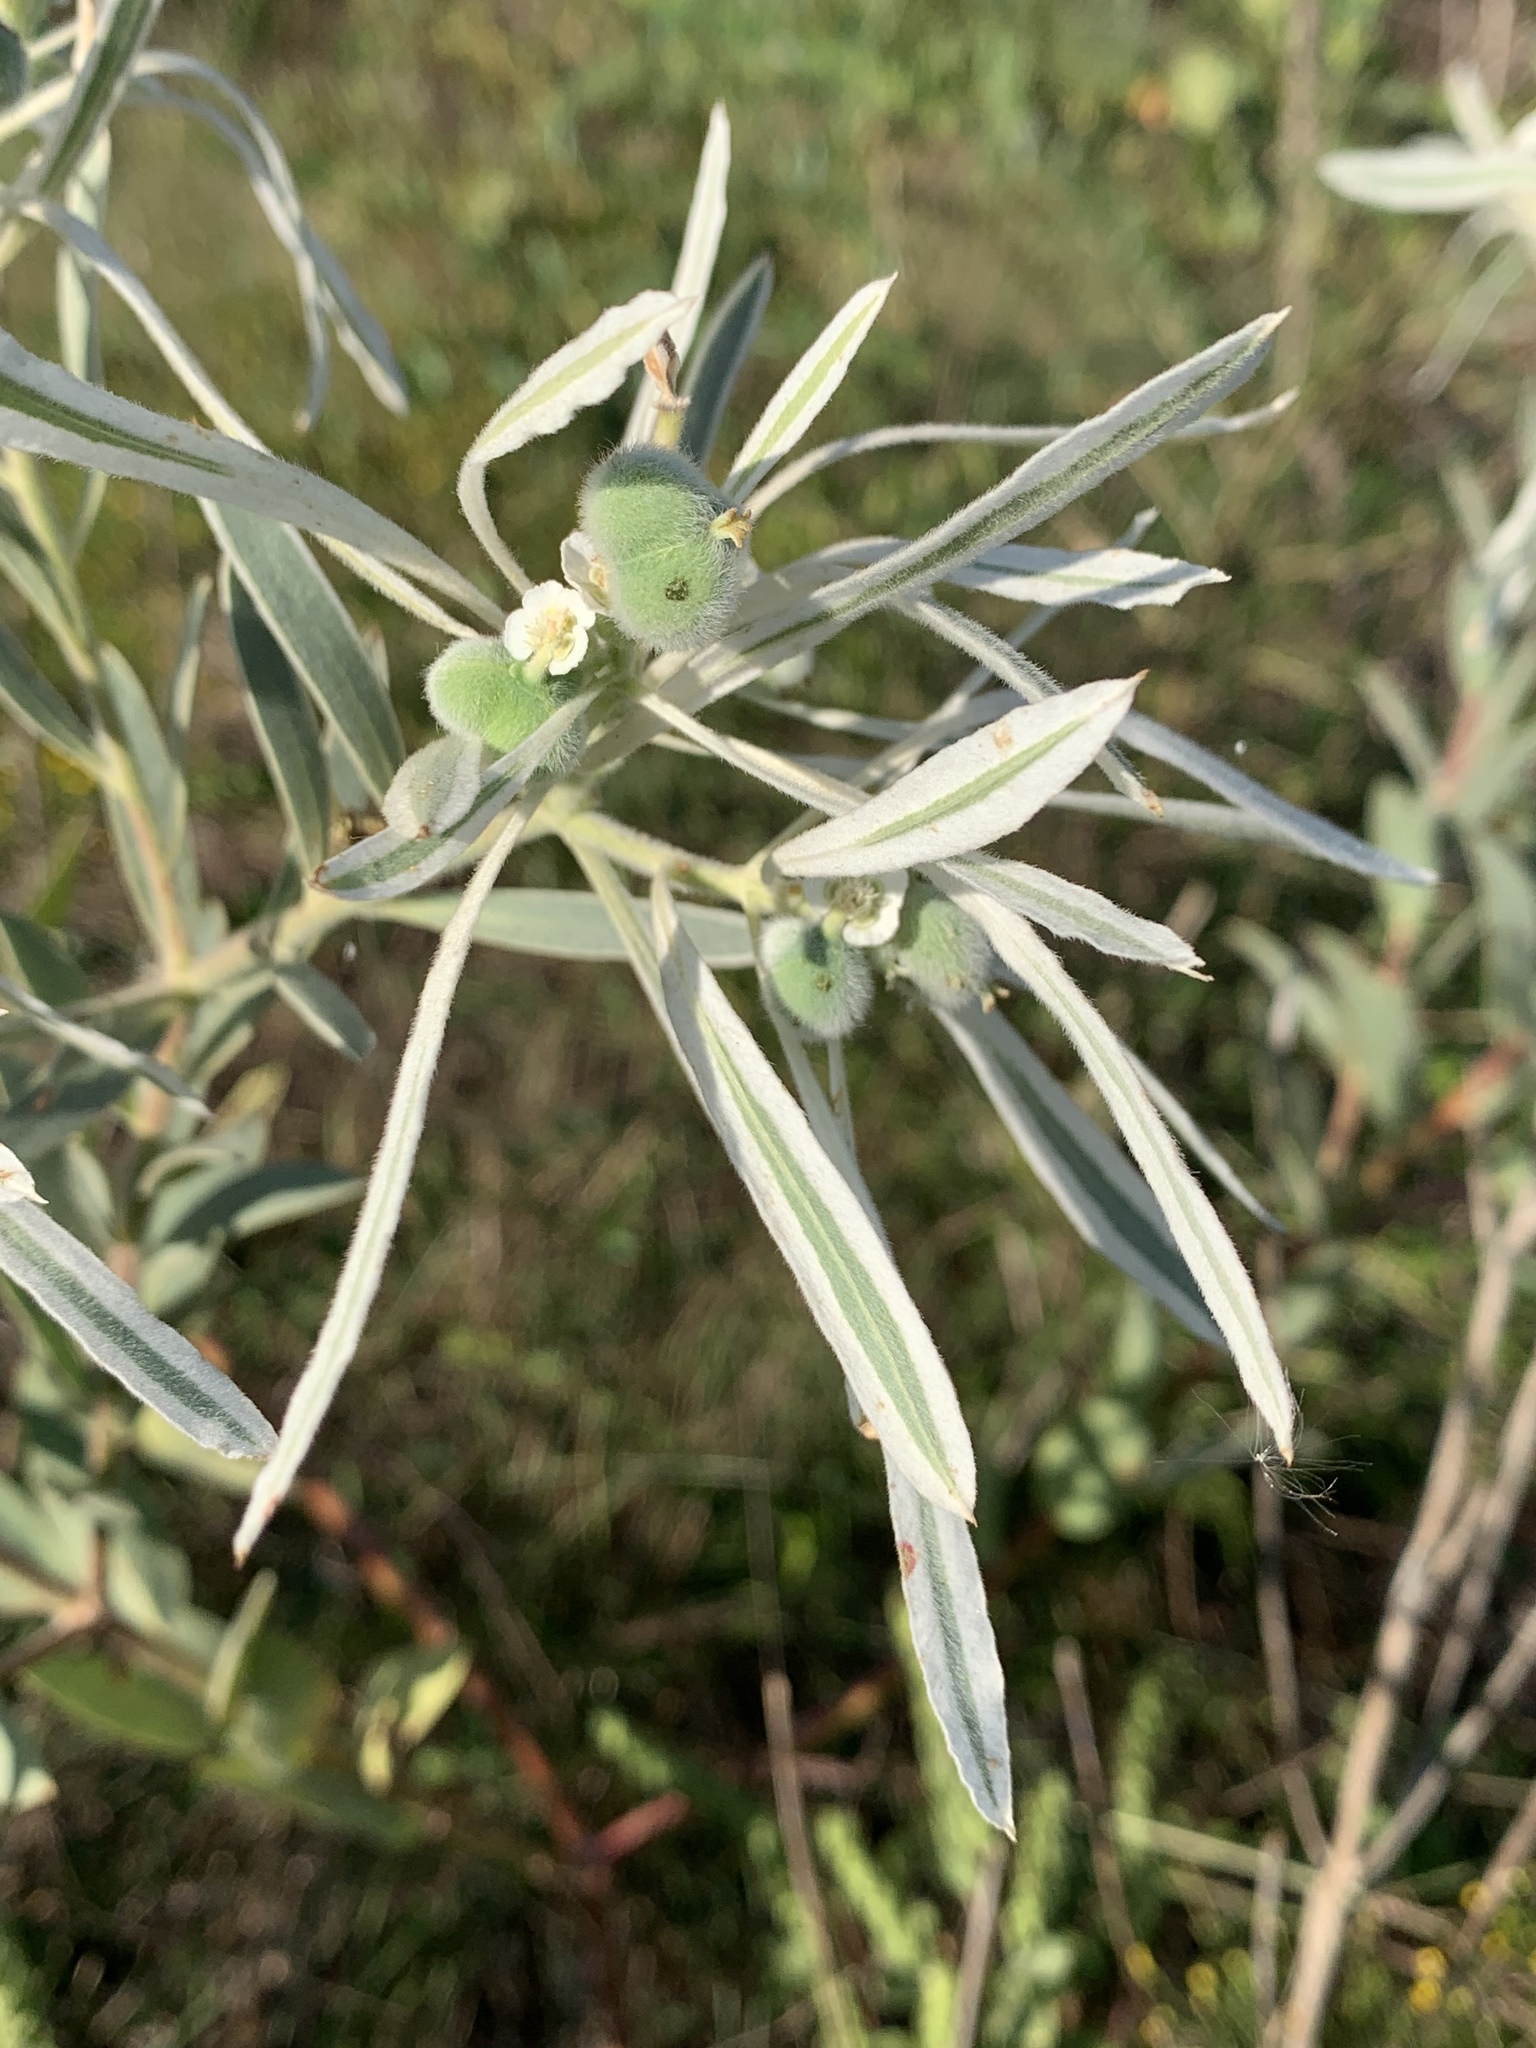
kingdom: Plantae
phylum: Tracheophyta
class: Magnoliopsida
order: Malpighiales
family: Euphorbiaceae
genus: Euphorbia
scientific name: Euphorbia bicolor
